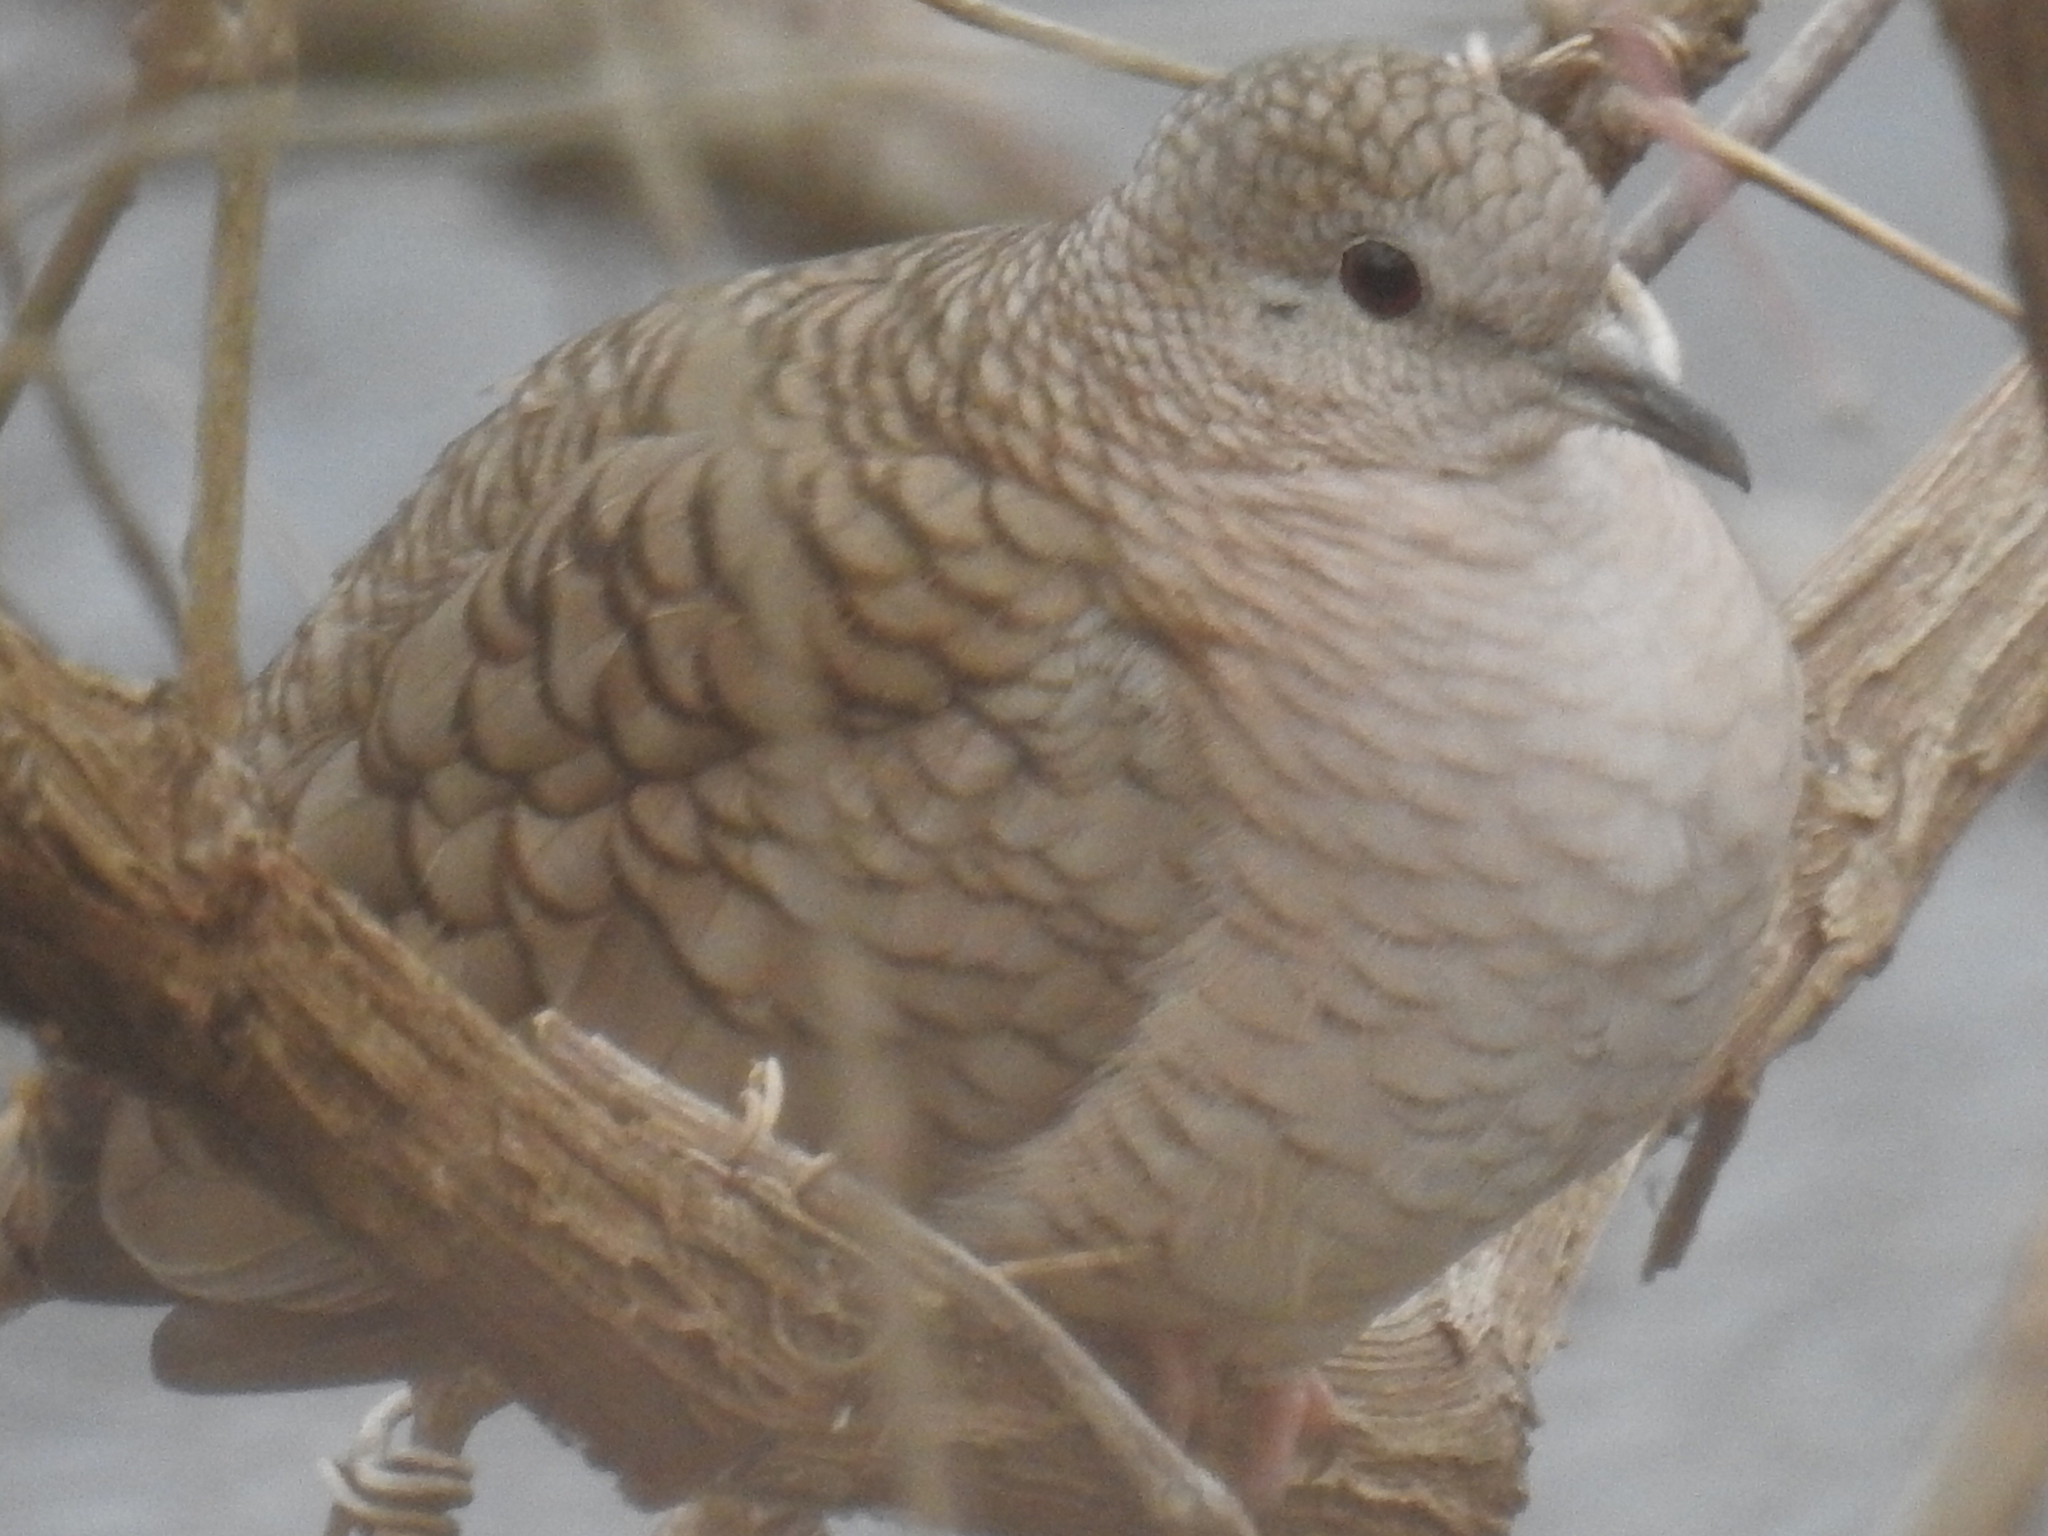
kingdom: Animalia
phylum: Chordata
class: Aves
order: Columbiformes
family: Columbidae
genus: Columbina
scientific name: Columbina inca
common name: Inca dove
